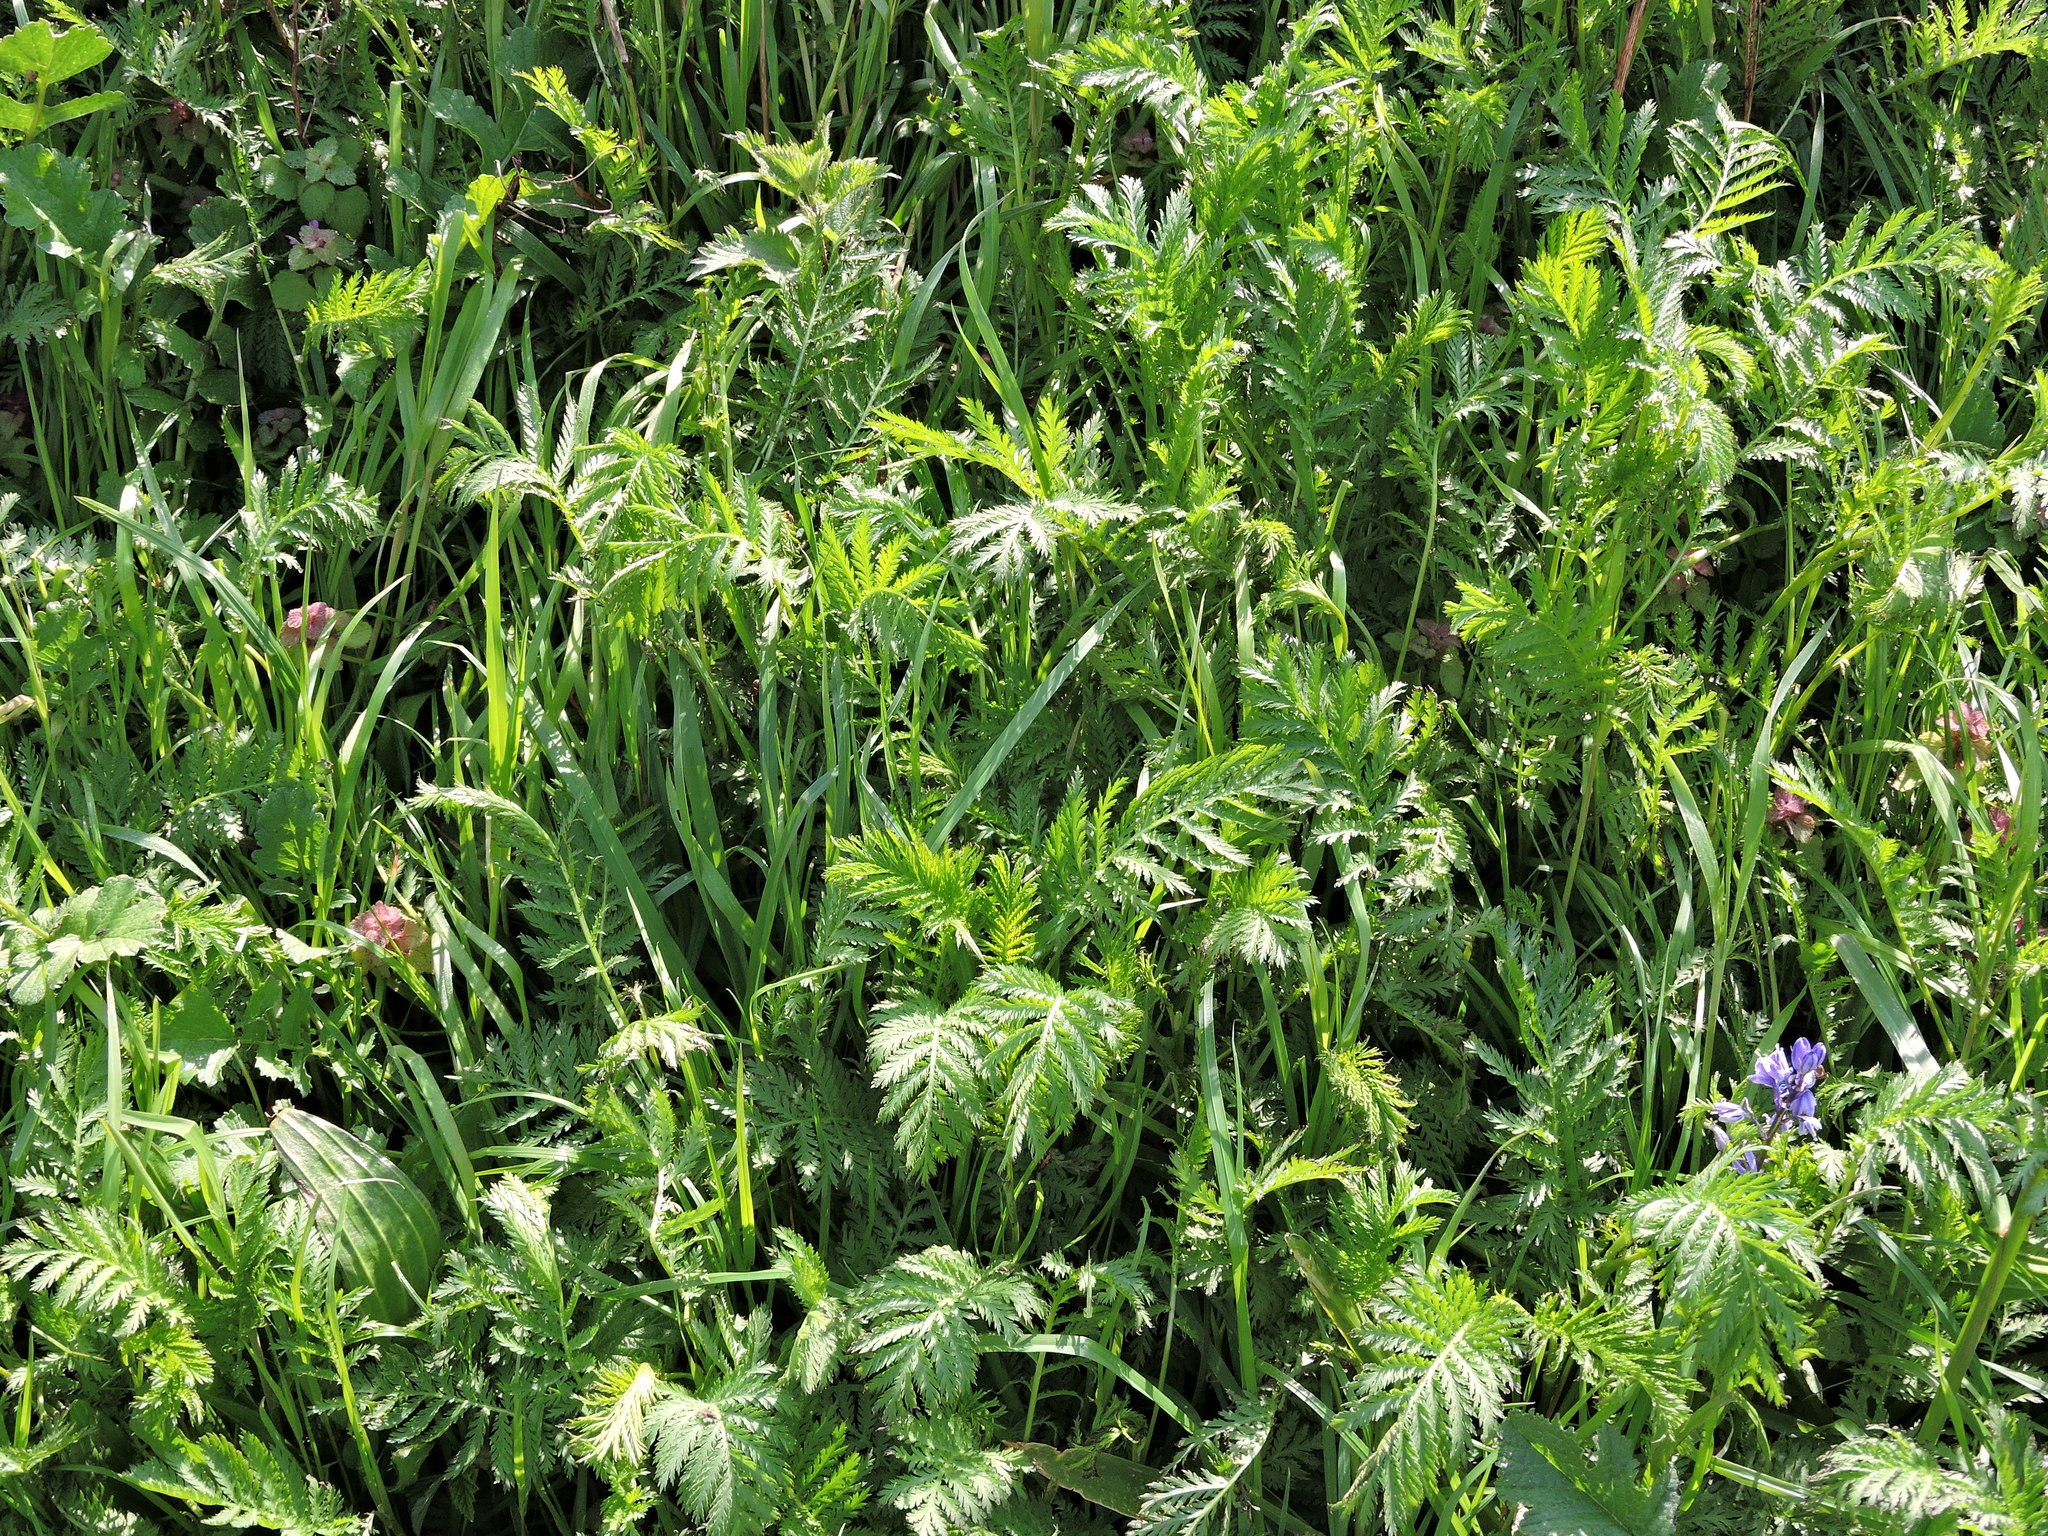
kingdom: Plantae
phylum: Tracheophyta
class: Magnoliopsida
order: Asterales
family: Asteraceae
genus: Tanacetum
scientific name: Tanacetum vulgare
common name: Common tansy
